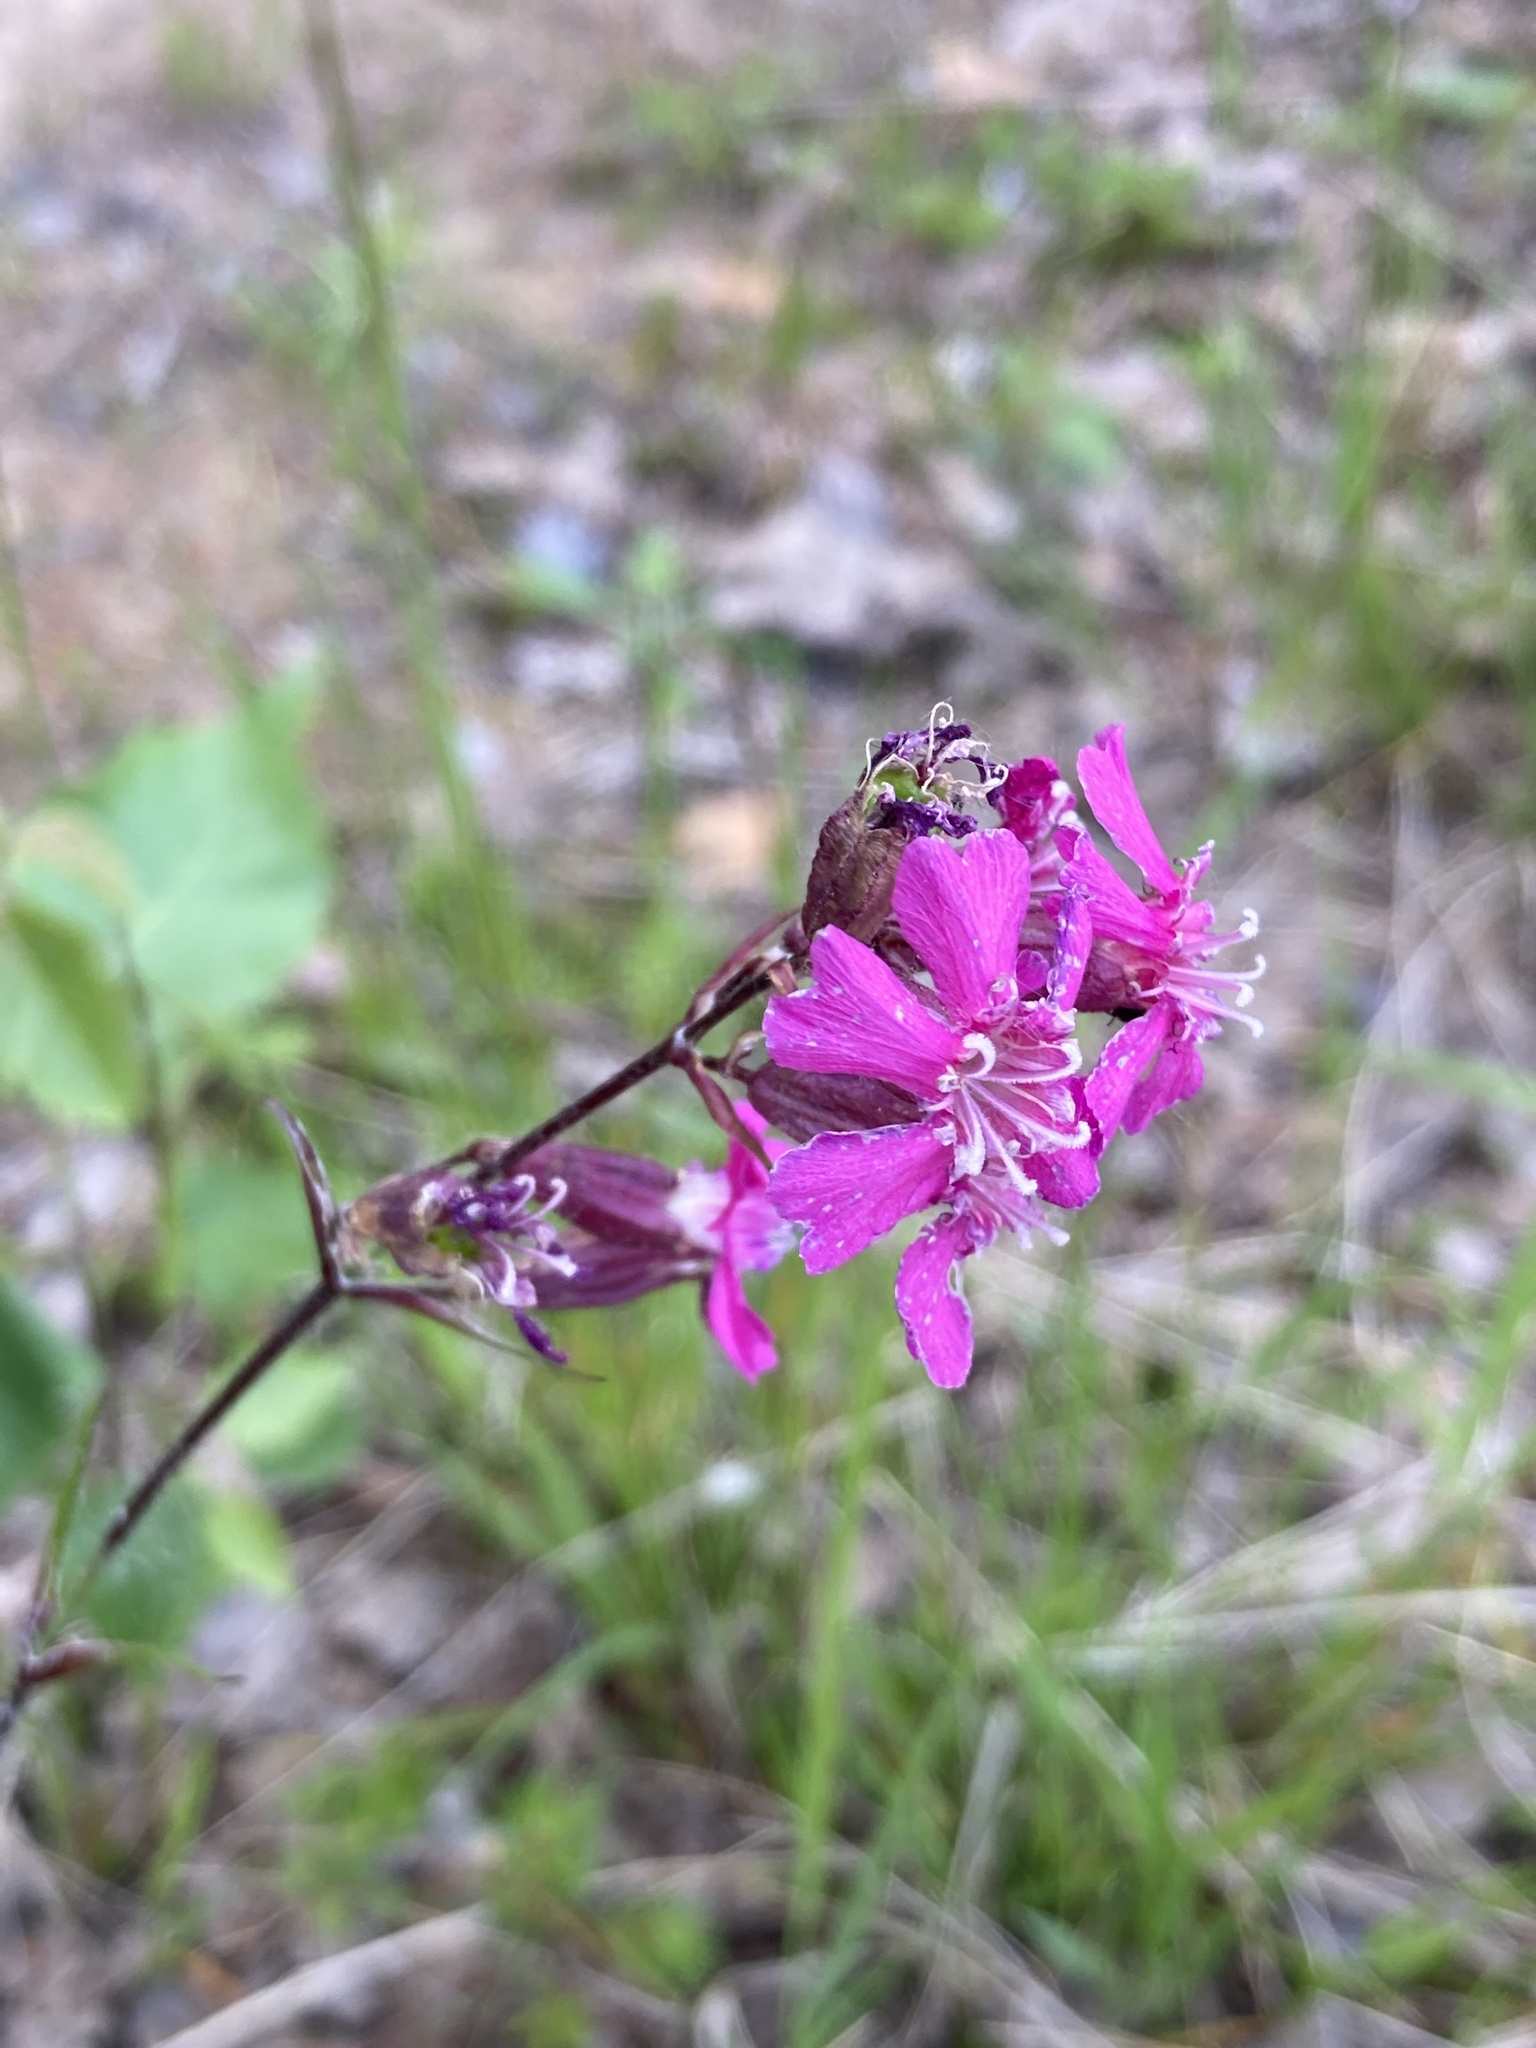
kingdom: Plantae
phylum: Tracheophyta
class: Magnoliopsida
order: Caryophyllales
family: Caryophyllaceae
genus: Viscaria
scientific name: Viscaria vulgaris
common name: Clammy campion
